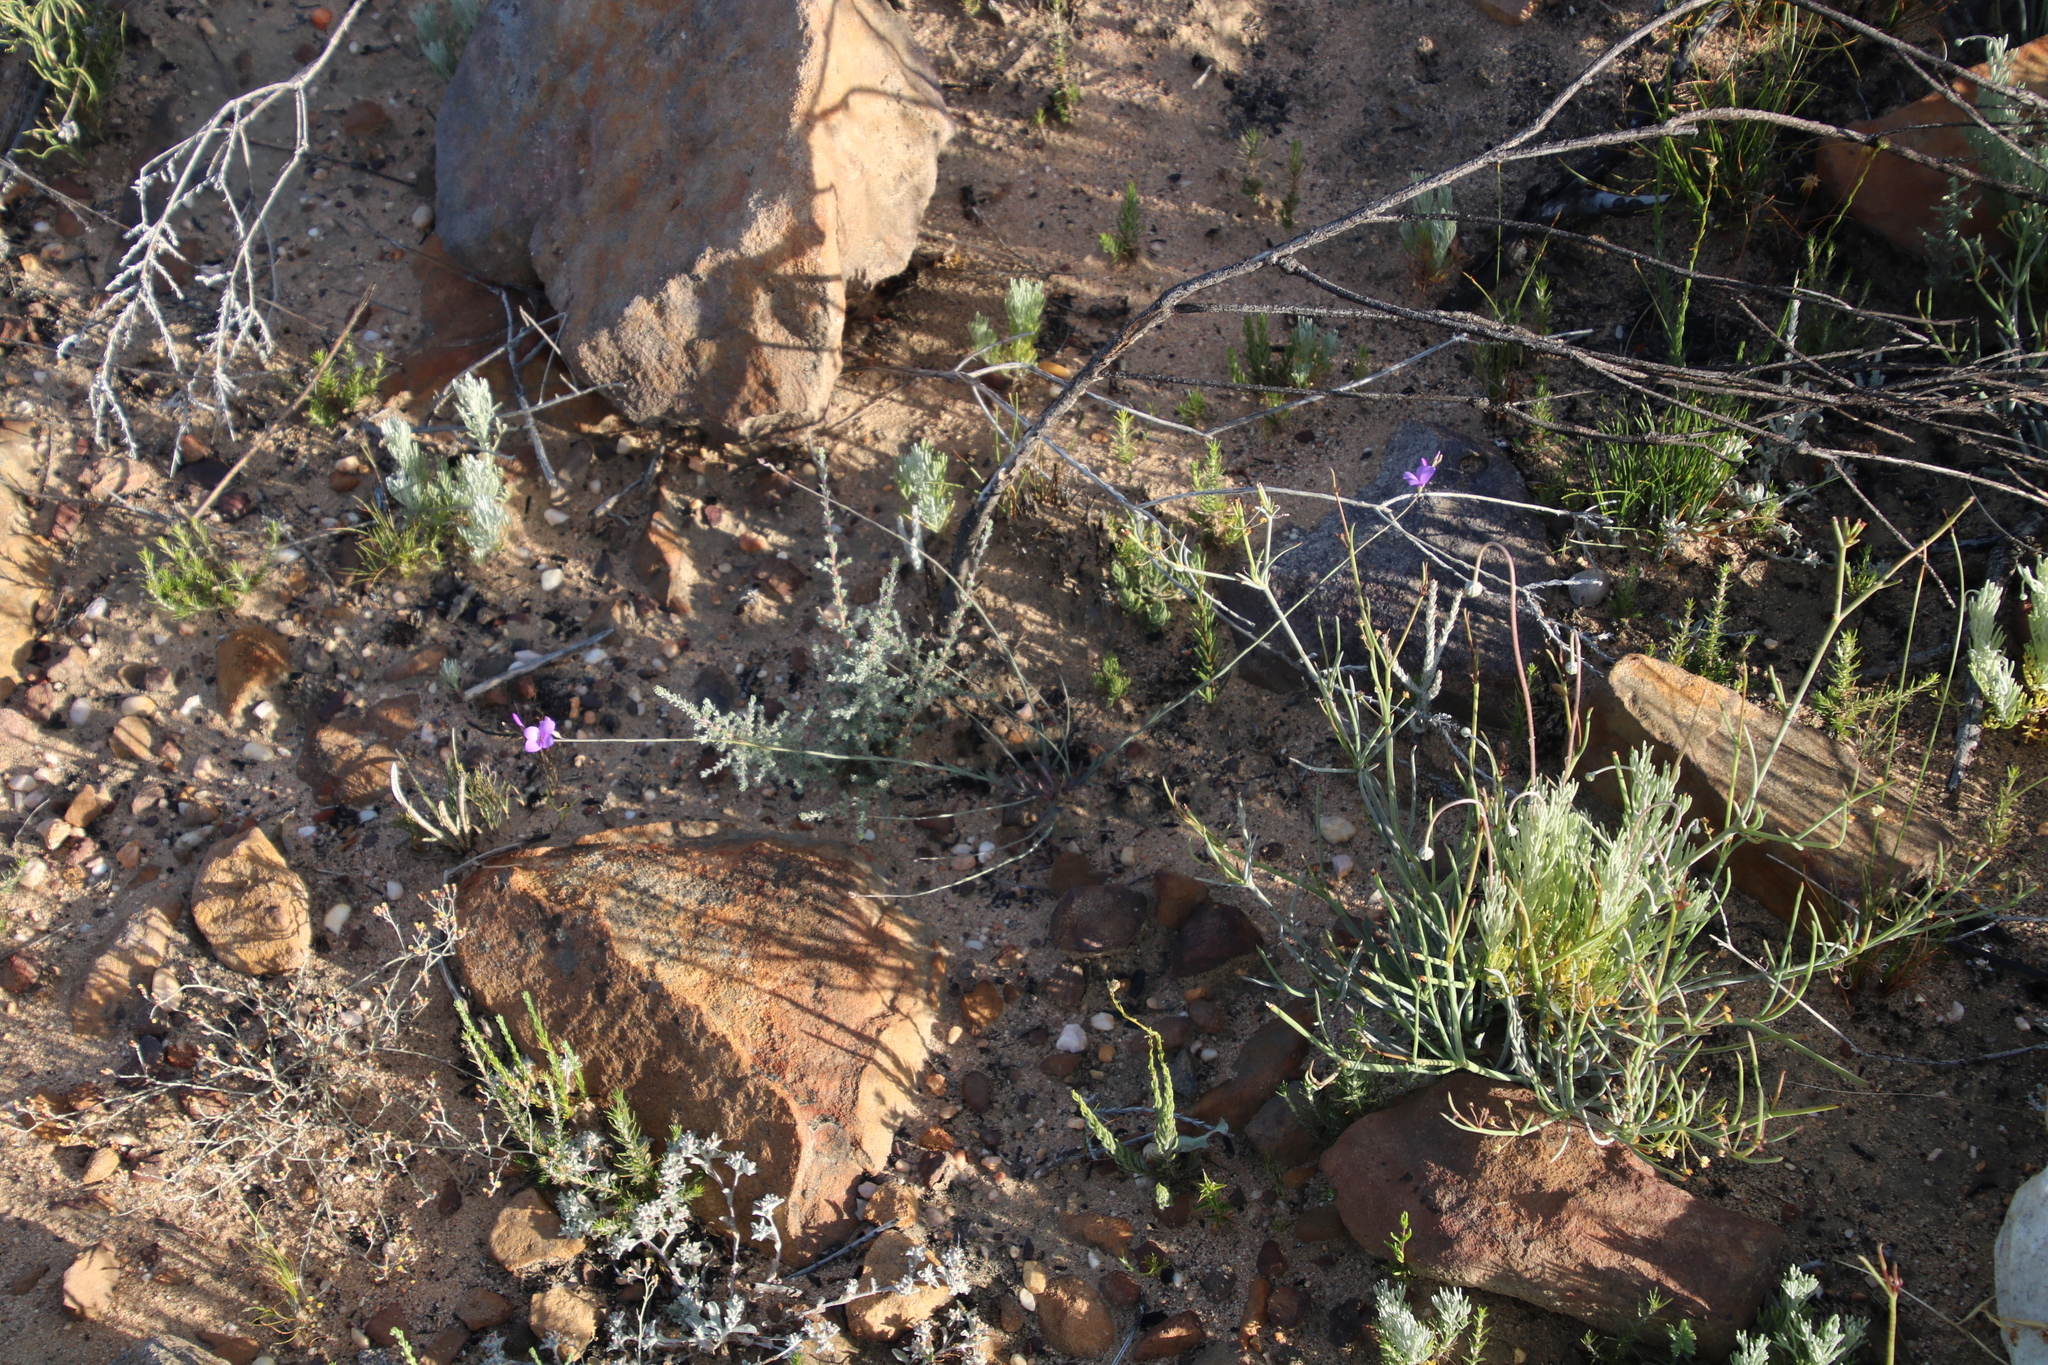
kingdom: Plantae
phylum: Tracheophyta
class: Magnoliopsida
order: Brassicales
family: Brassicaceae
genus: Heliophila
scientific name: Heliophila juncea
